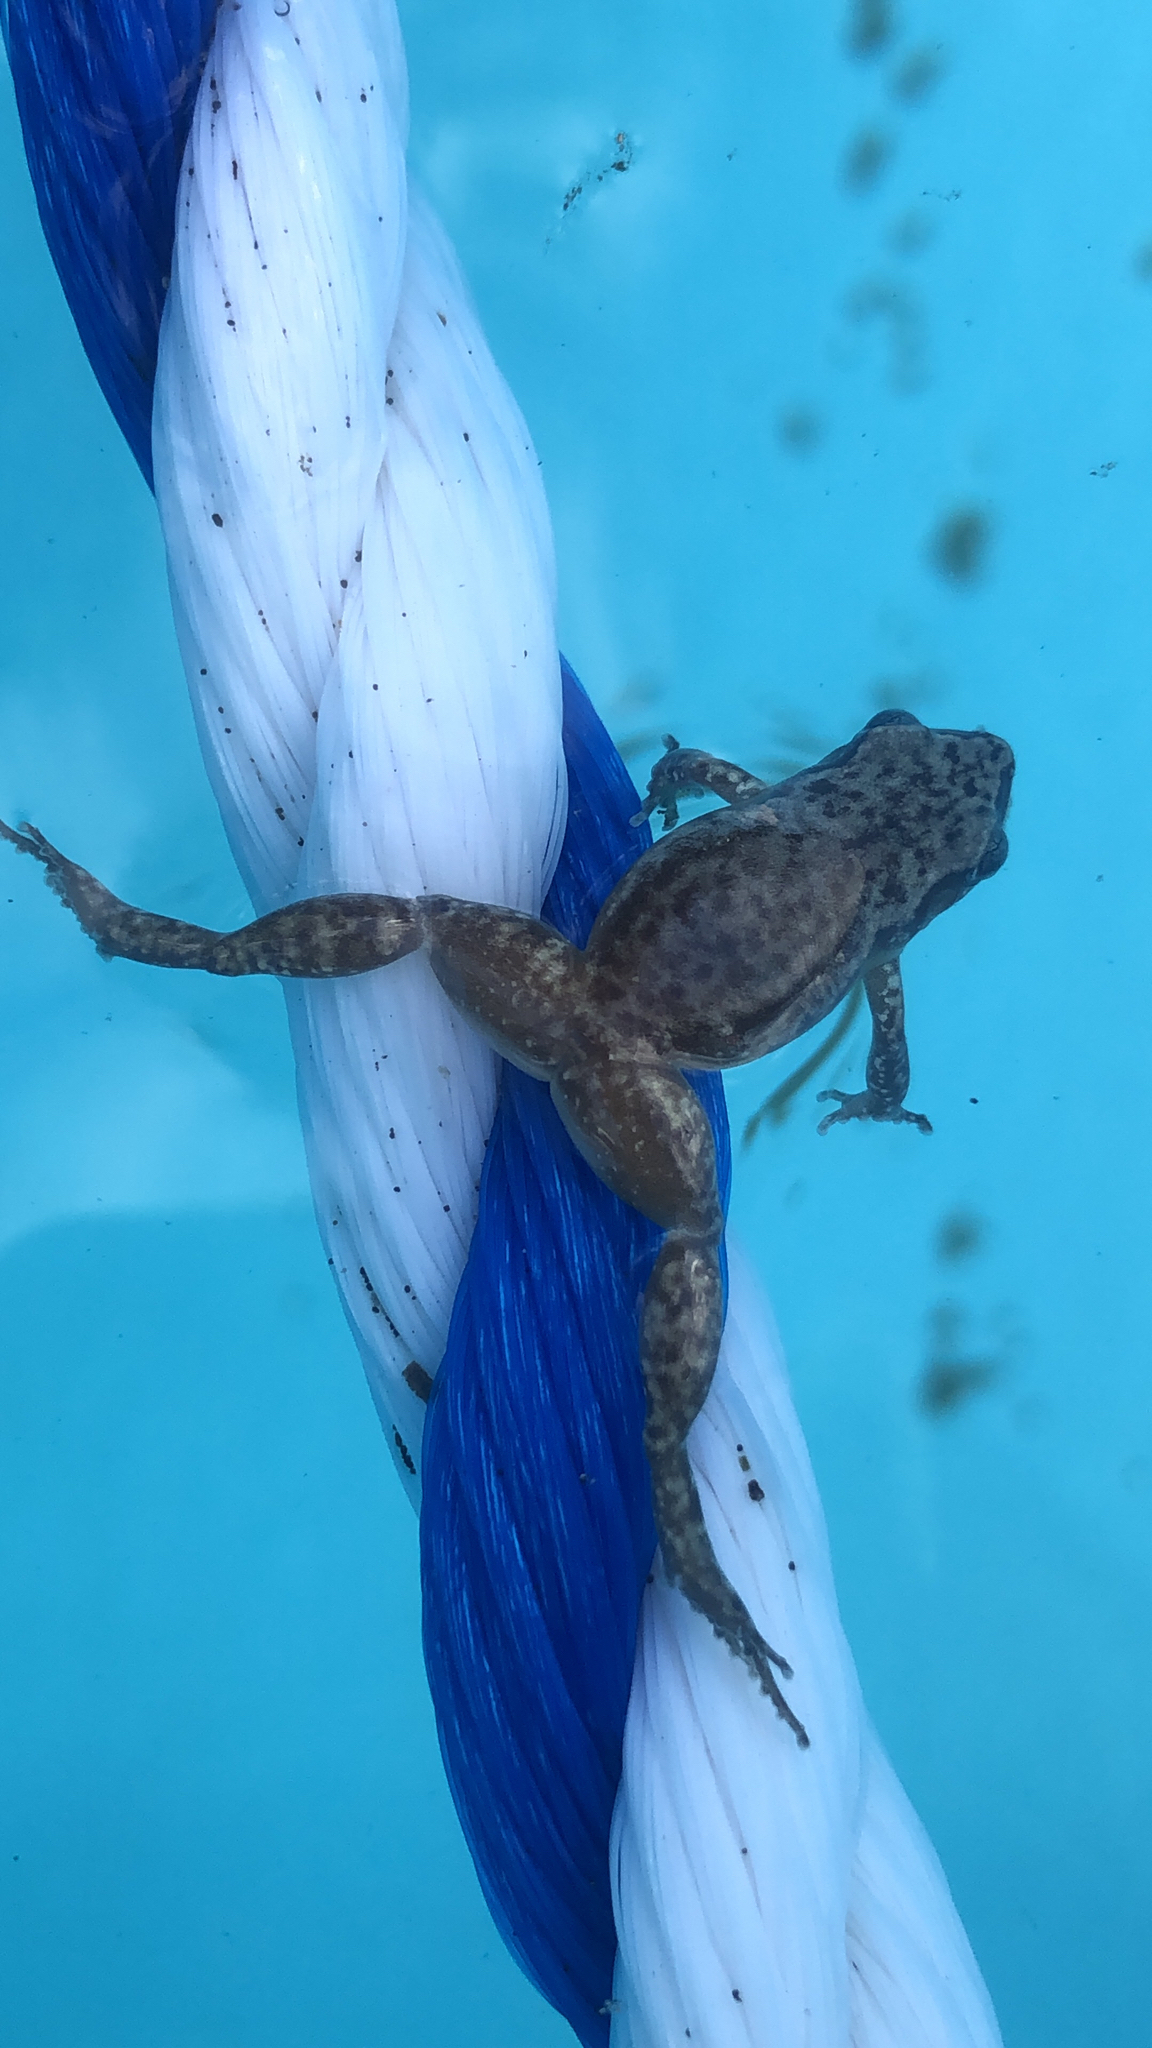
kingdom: Animalia
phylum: Chordata
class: Amphibia
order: Anura
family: Eleutherodactylidae
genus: Eleutherodactylus
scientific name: Eleutherodactylus campi
